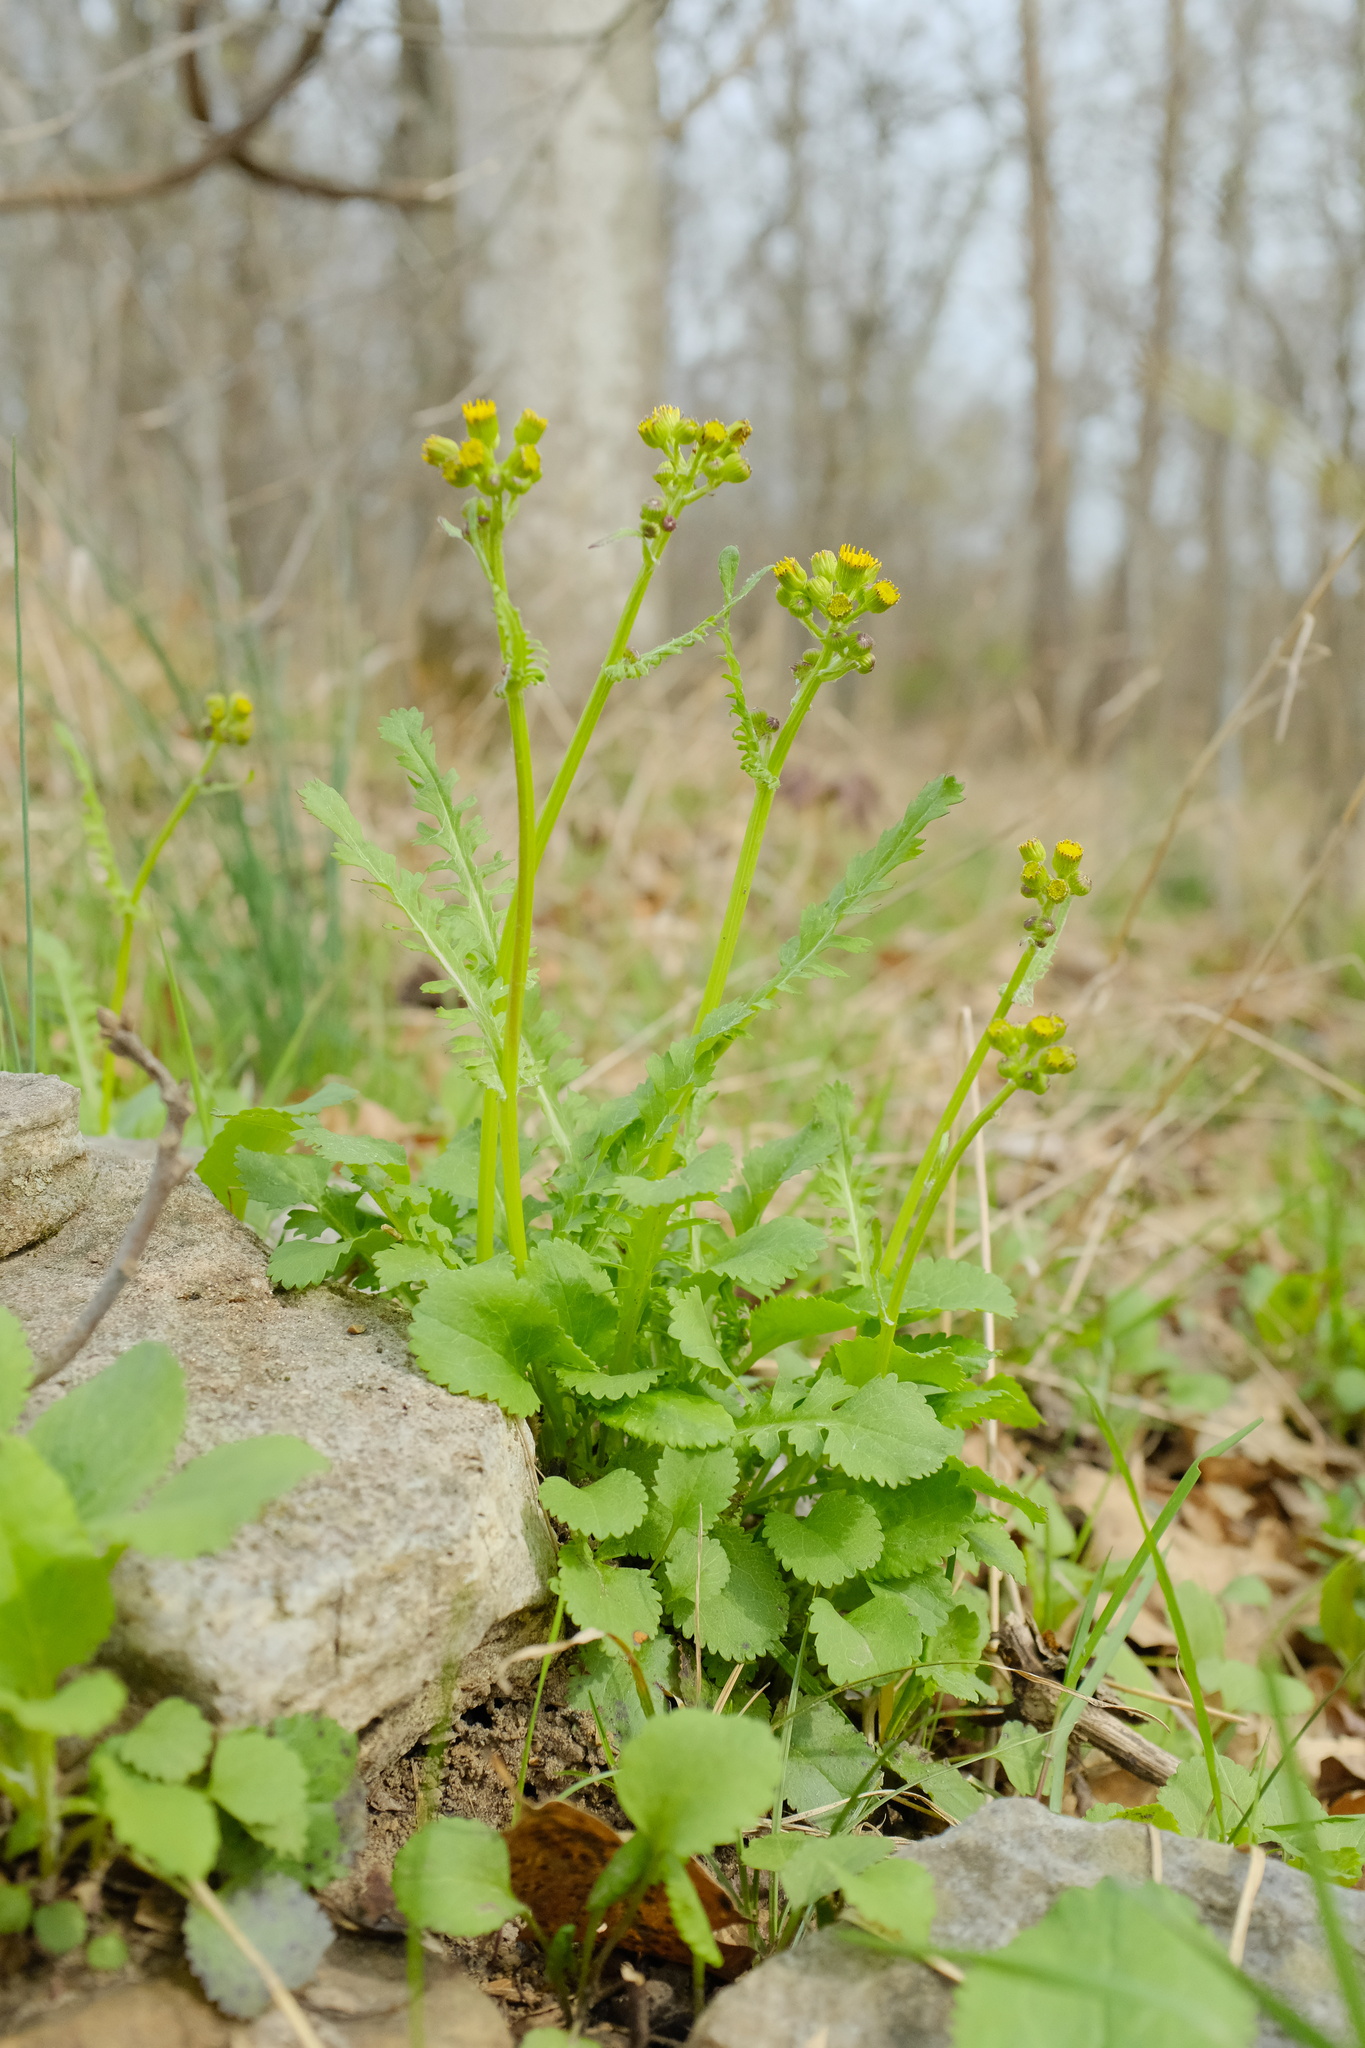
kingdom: Plantae
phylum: Tracheophyta
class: Magnoliopsida
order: Asterales
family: Asteraceae
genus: Packera
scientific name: Packera obovata
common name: Round-leaf ragwort
